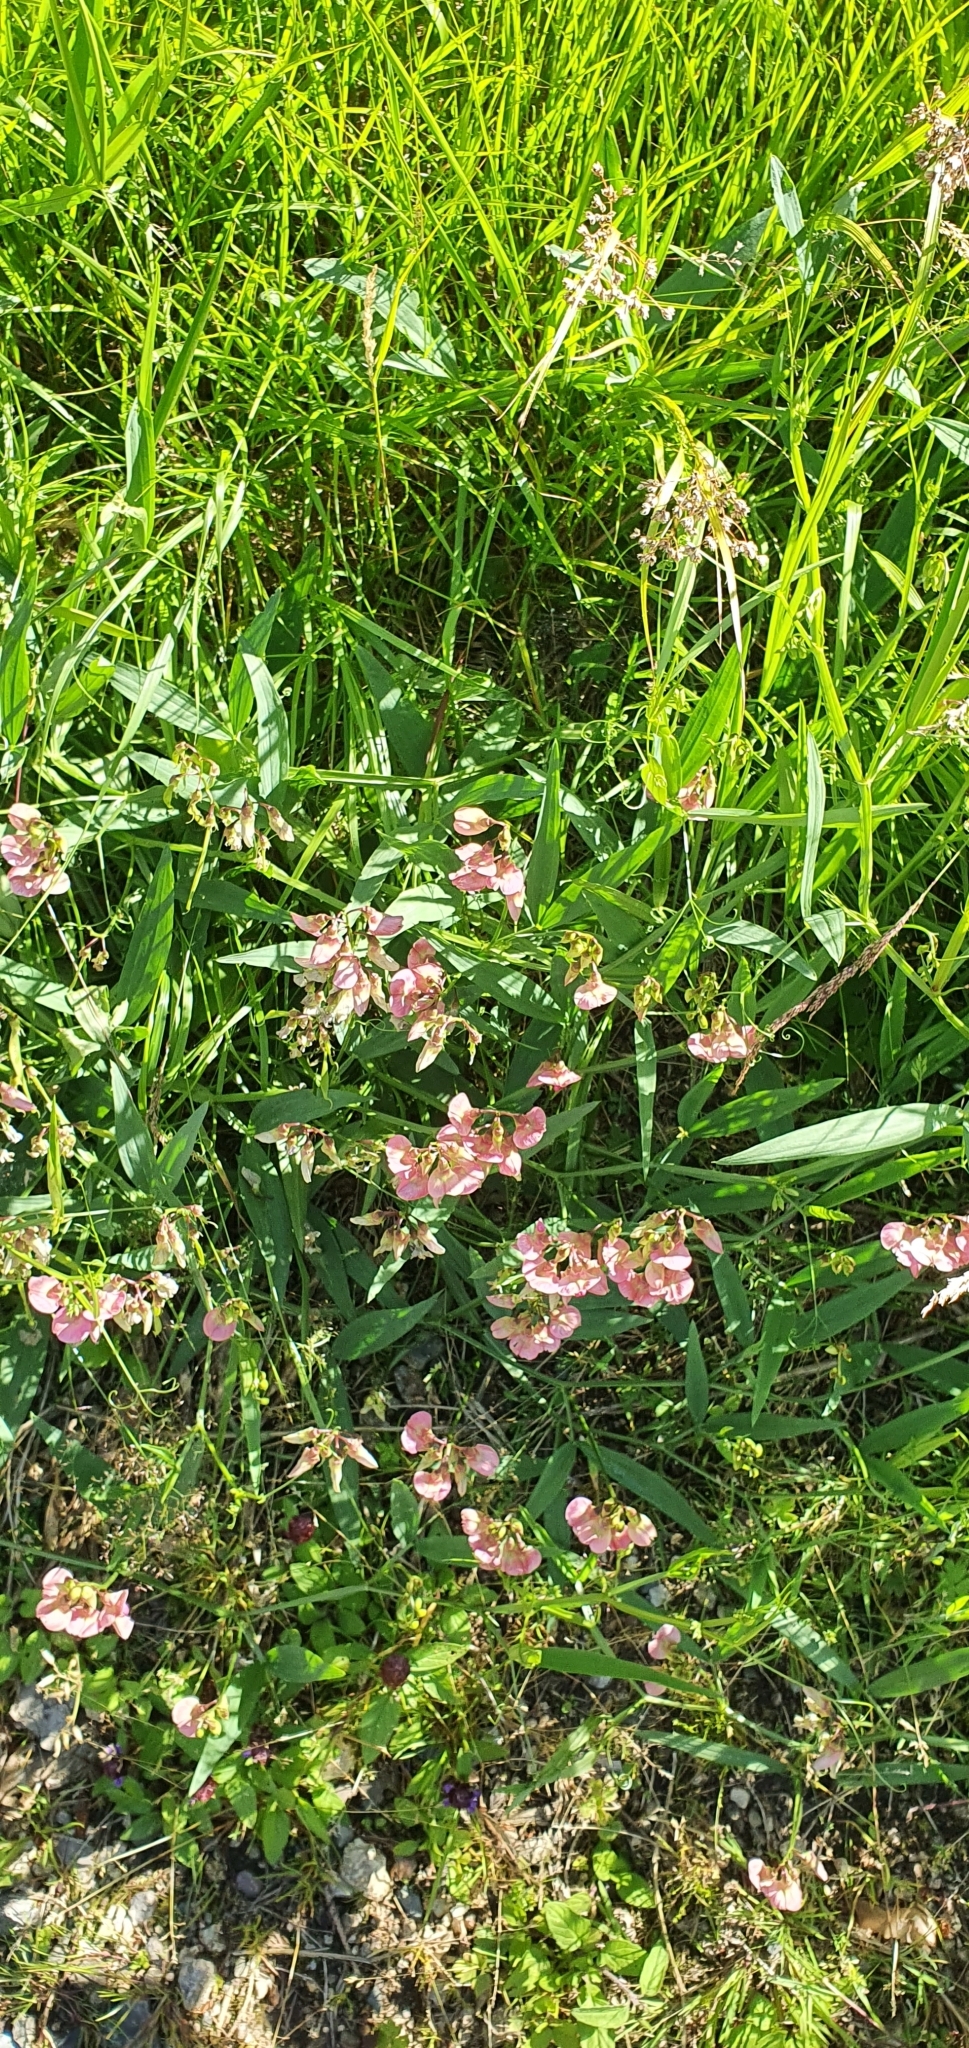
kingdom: Plantae
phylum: Tracheophyta
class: Magnoliopsida
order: Fabales
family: Fabaceae
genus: Lathyrus
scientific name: Lathyrus sylvestris
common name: Flat pea
